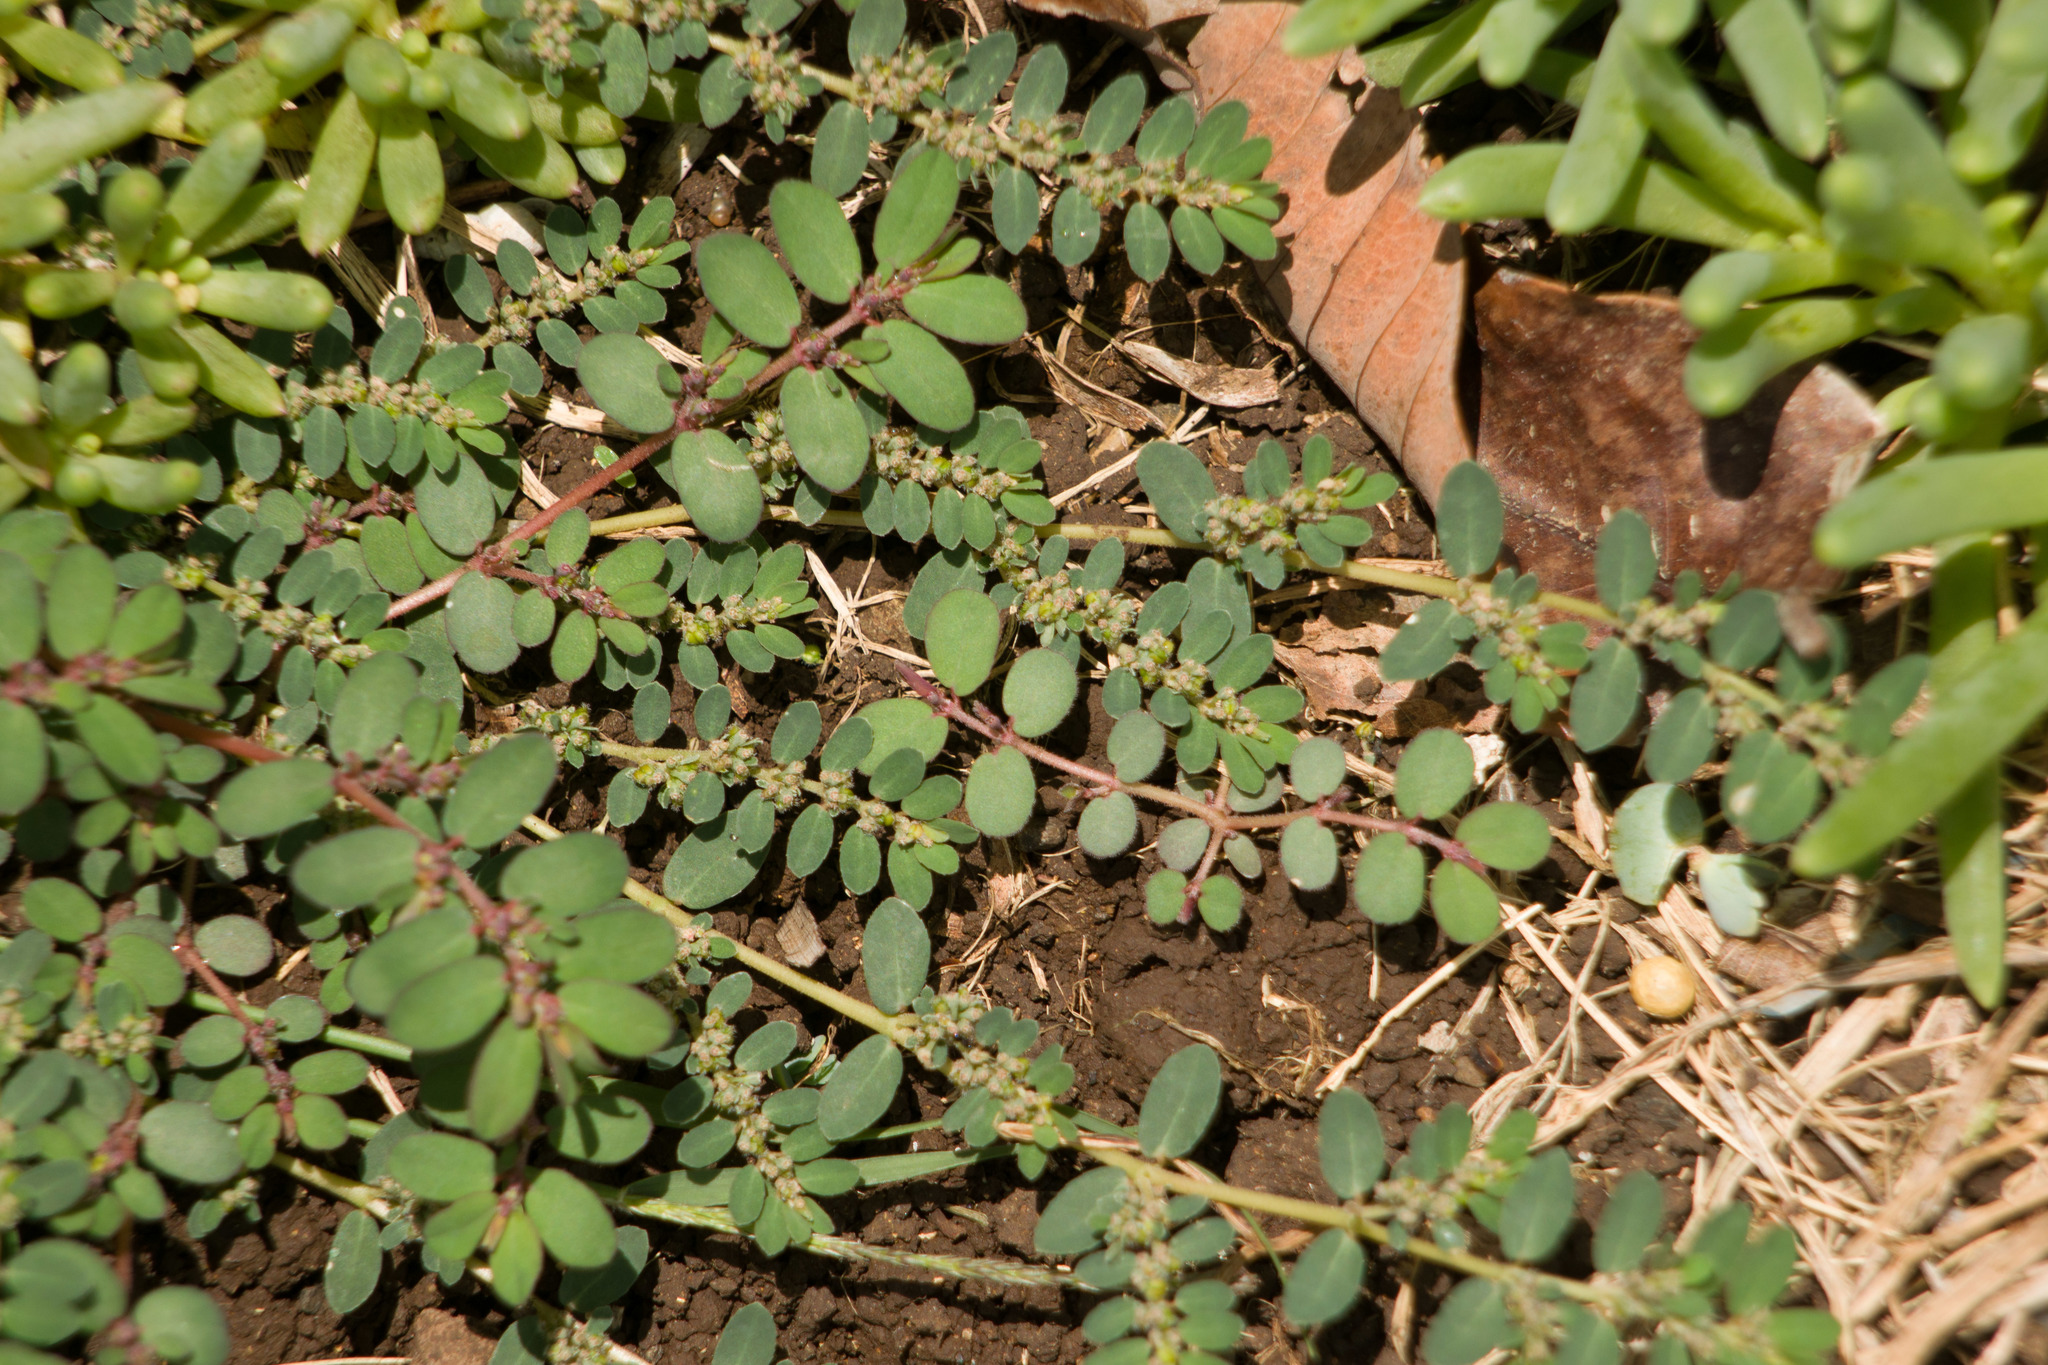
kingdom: Plantae
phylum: Tracheophyta
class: Magnoliopsida
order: Malpighiales
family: Euphorbiaceae
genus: Euphorbia
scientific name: Euphorbia prostrata
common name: Prostrate sandmat
